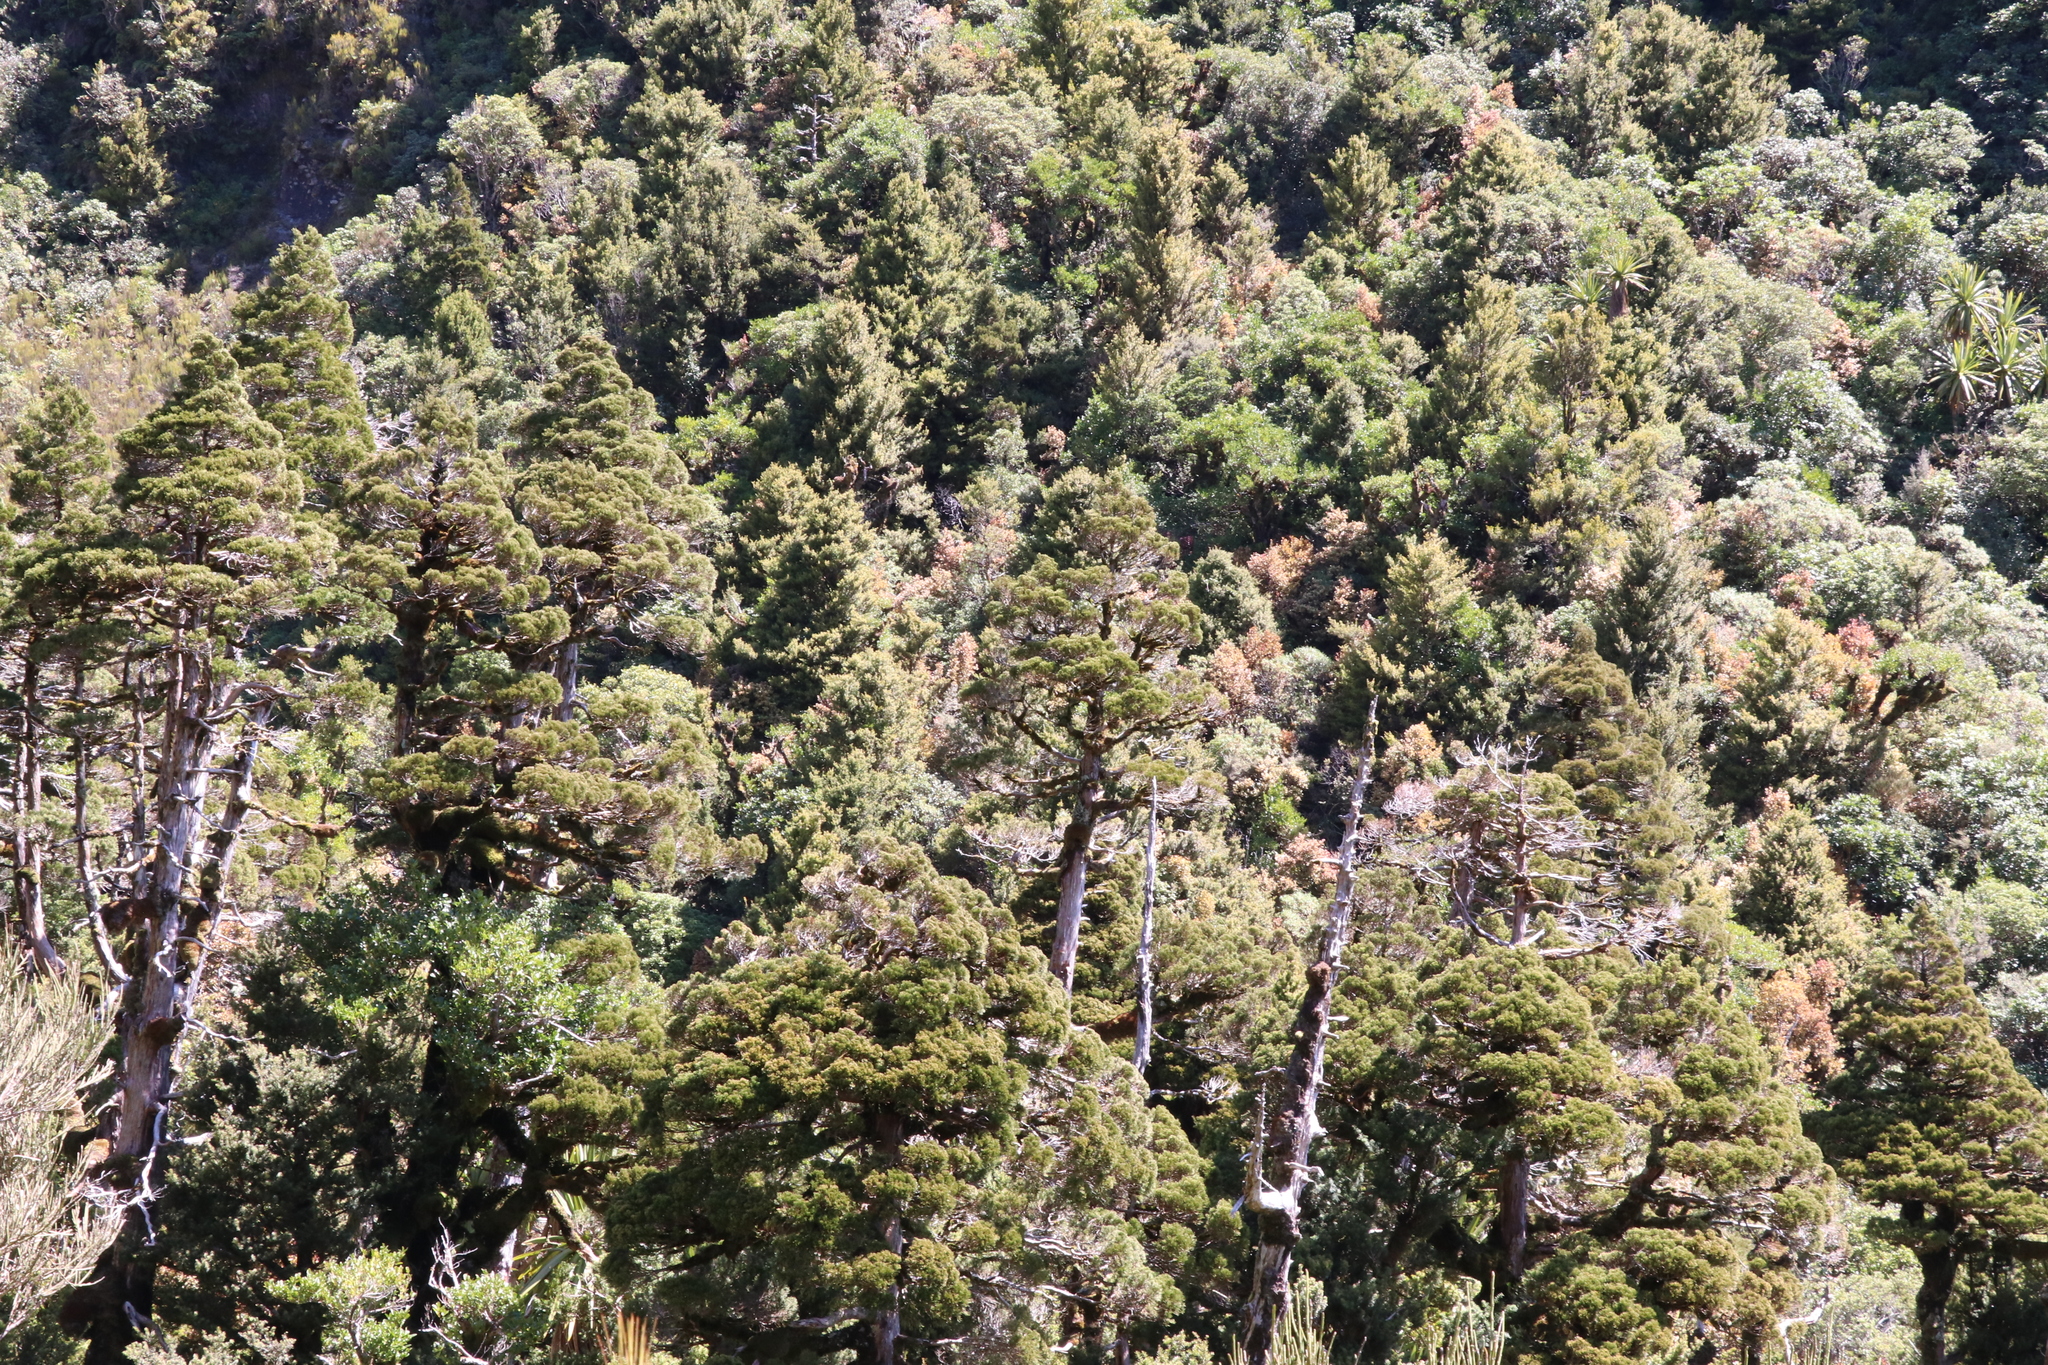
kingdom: Plantae
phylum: Tracheophyta
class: Pinopsida
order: Pinales
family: Cupressaceae
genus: Libocedrus
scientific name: Libocedrus bidwillii
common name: Cedar
